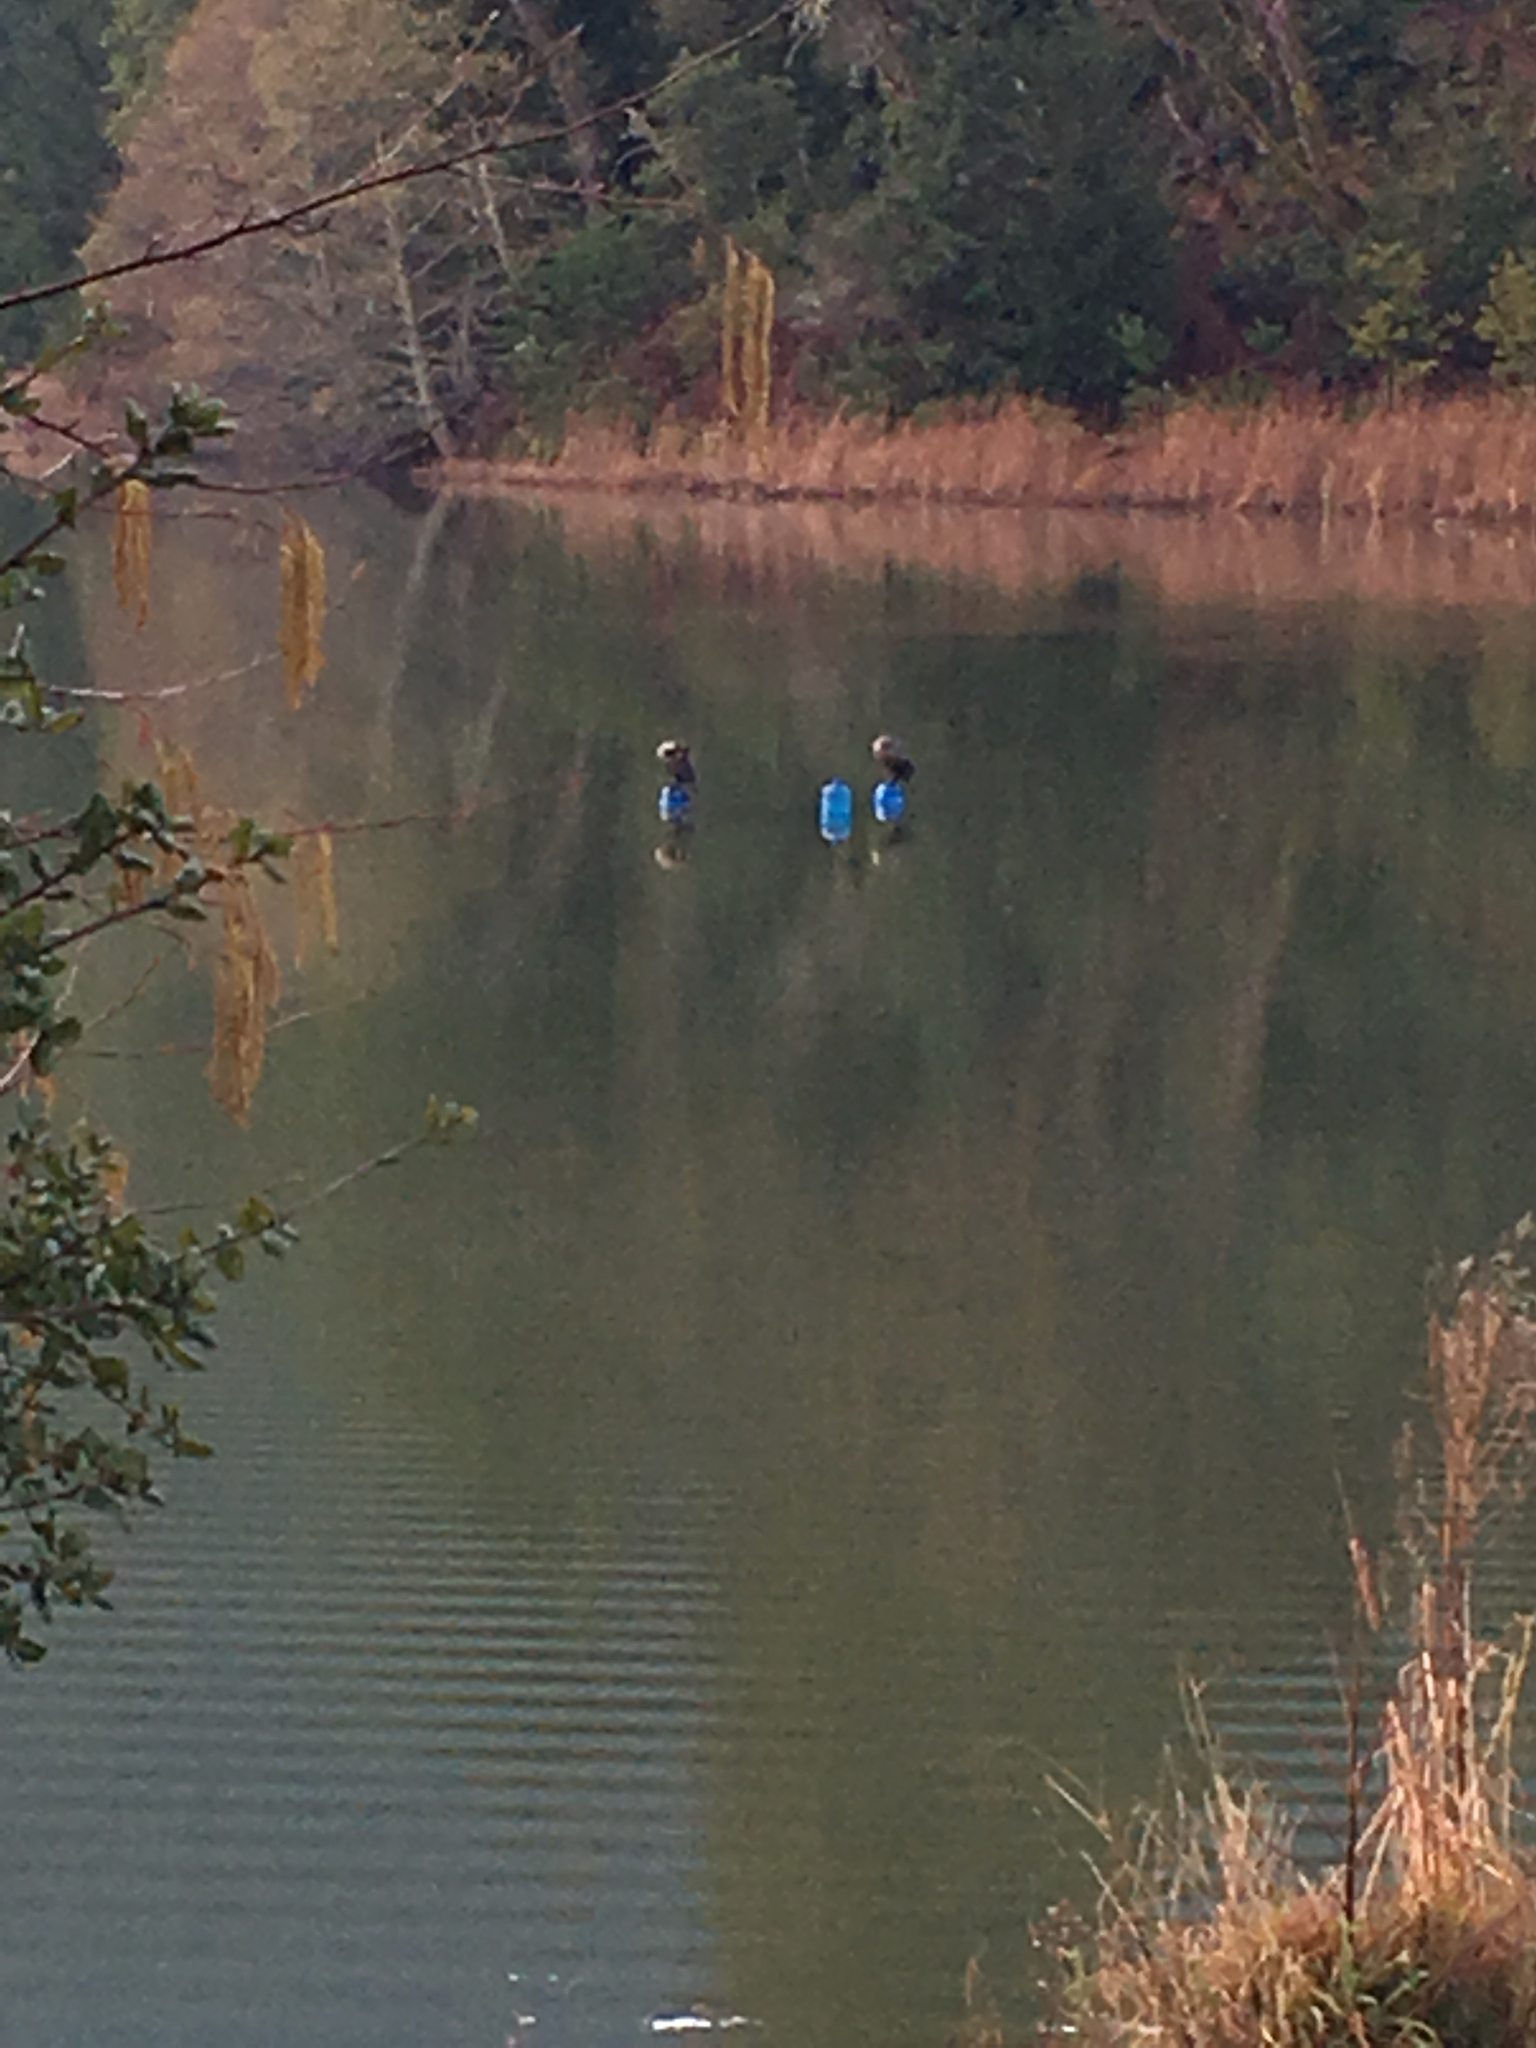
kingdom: Animalia
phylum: Chordata
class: Aves
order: Suliformes
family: Phalacrocoracidae
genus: Phalacrocorax
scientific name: Phalacrocorax auritus
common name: Double-crested cormorant
